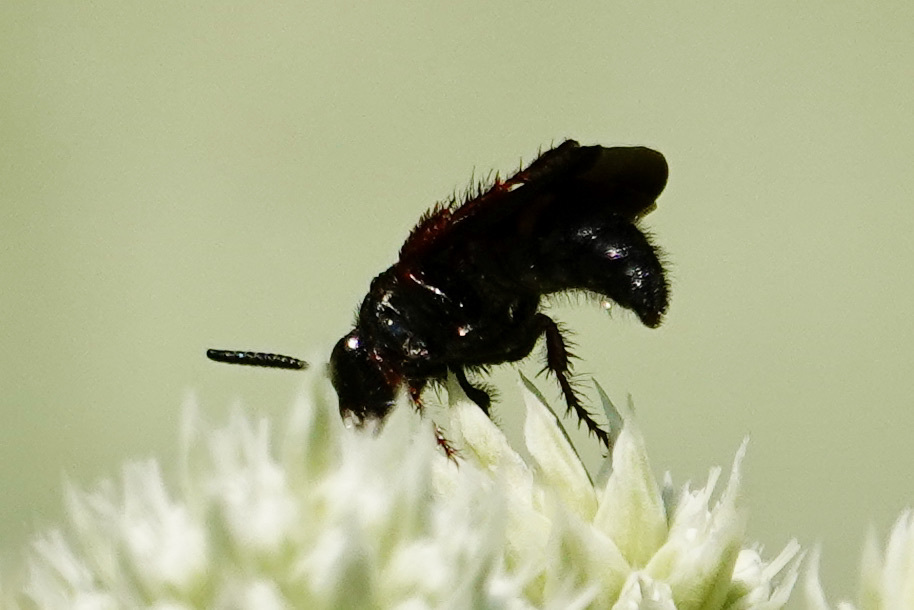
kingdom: Animalia
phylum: Arthropoda
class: Insecta
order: Hymenoptera
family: Scoliidae
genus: Scolia
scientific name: Scolia nobilitata
